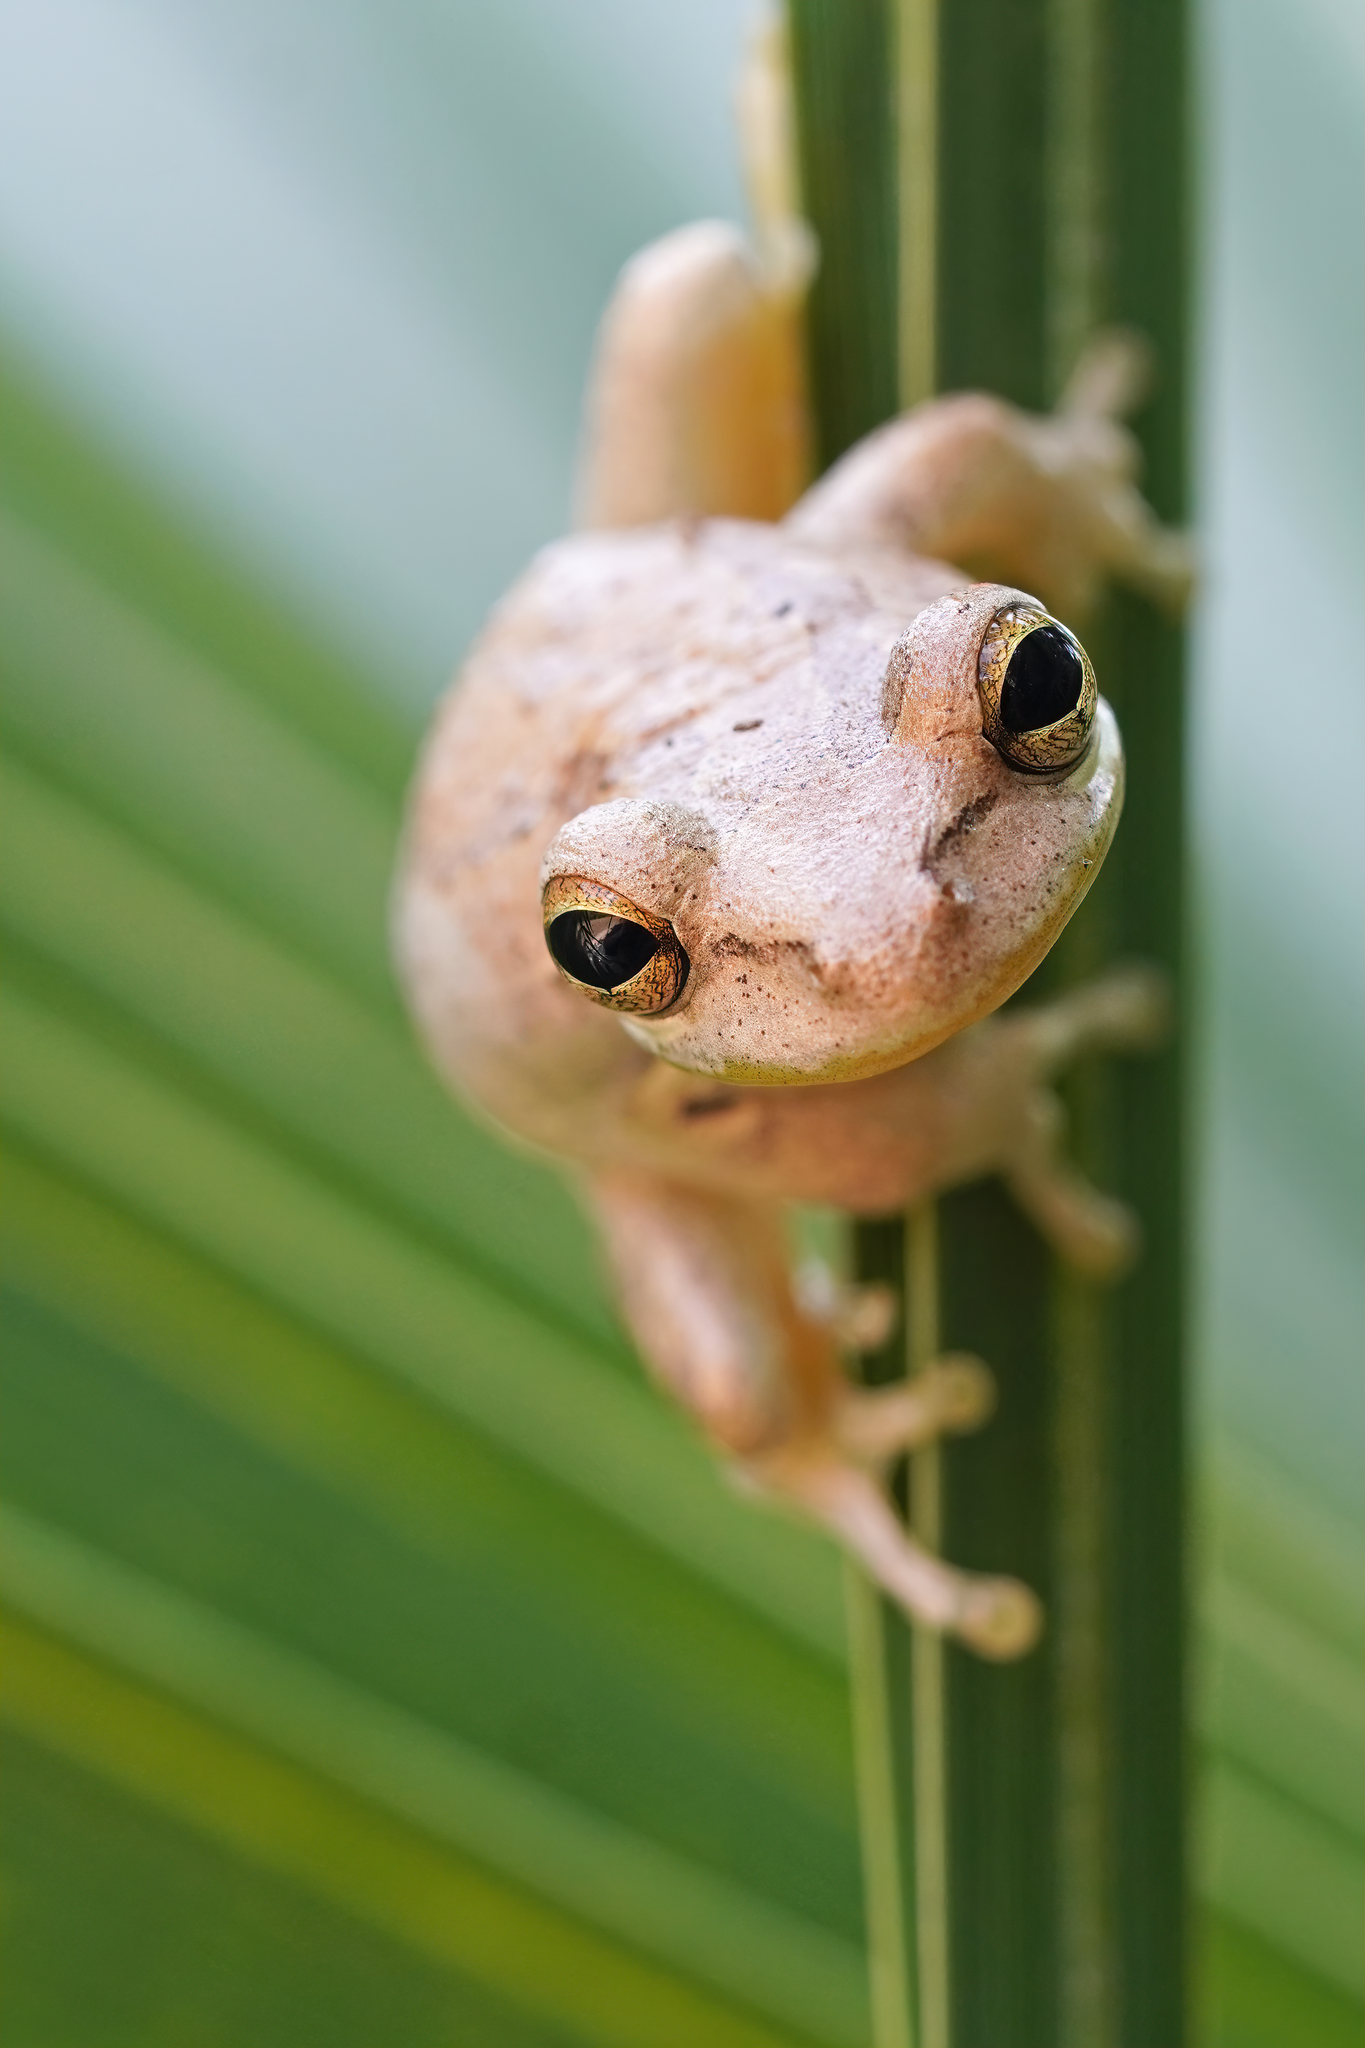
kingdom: Animalia
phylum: Chordata
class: Amphibia
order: Anura
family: Hylidae
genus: Osteopilus
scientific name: Osteopilus septentrionalis
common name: Cuban treefrog
